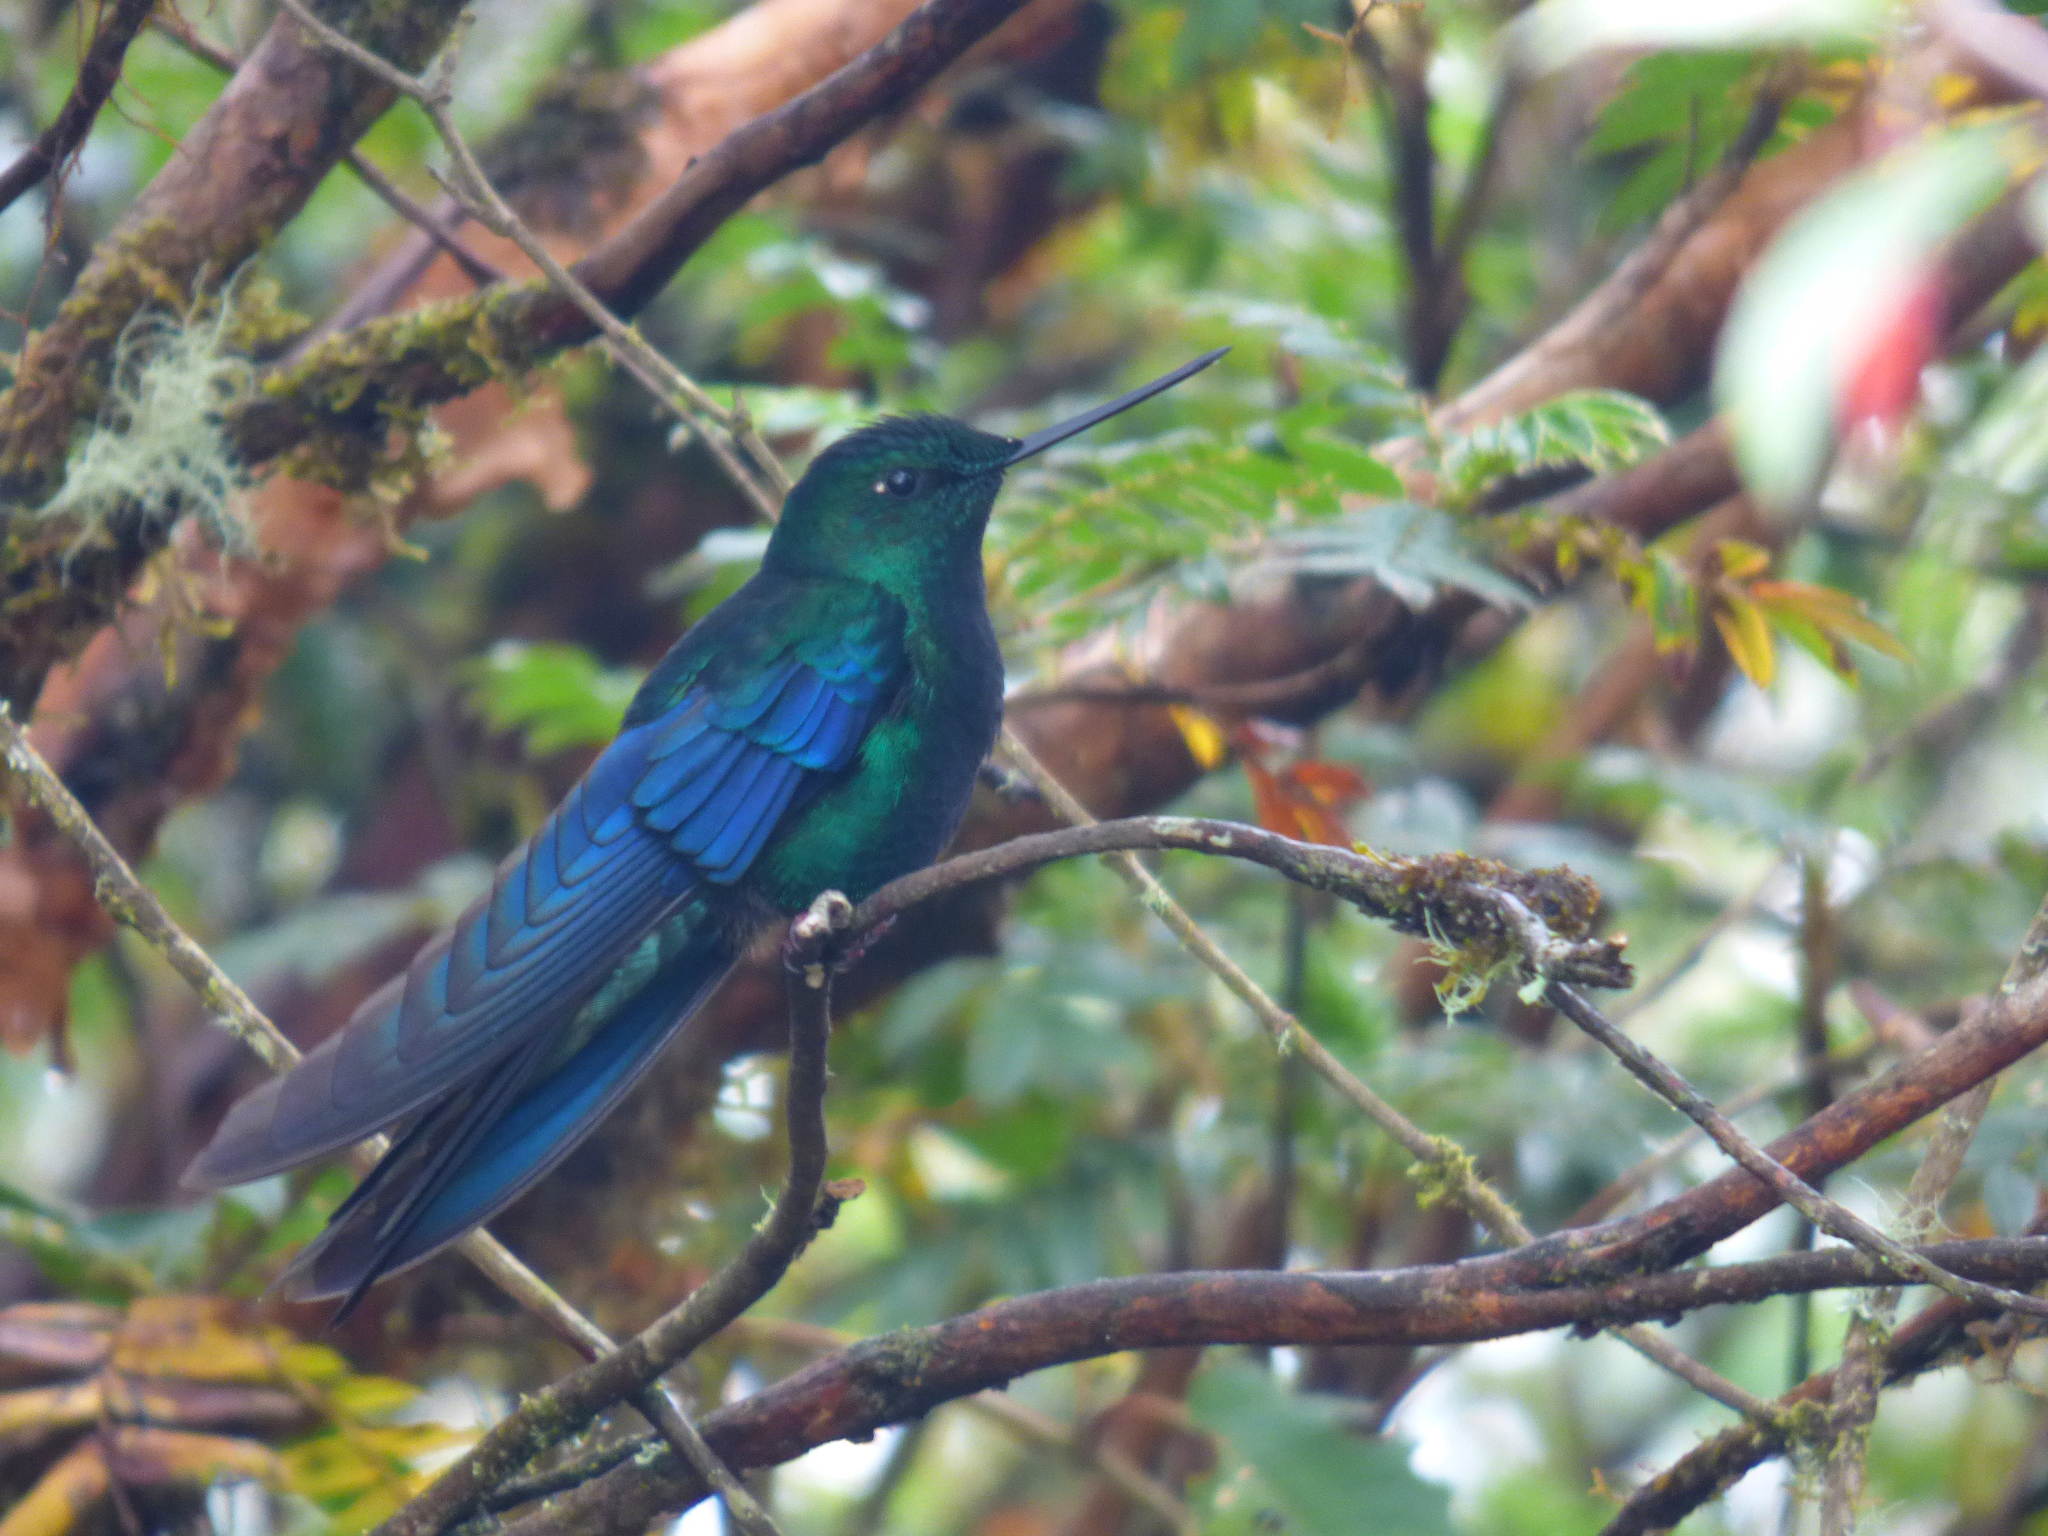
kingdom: Animalia
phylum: Chordata
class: Aves
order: Apodiformes
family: Trochilidae
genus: Pterophanes
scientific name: Pterophanes cyanopterus
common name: Great sapphirewing
